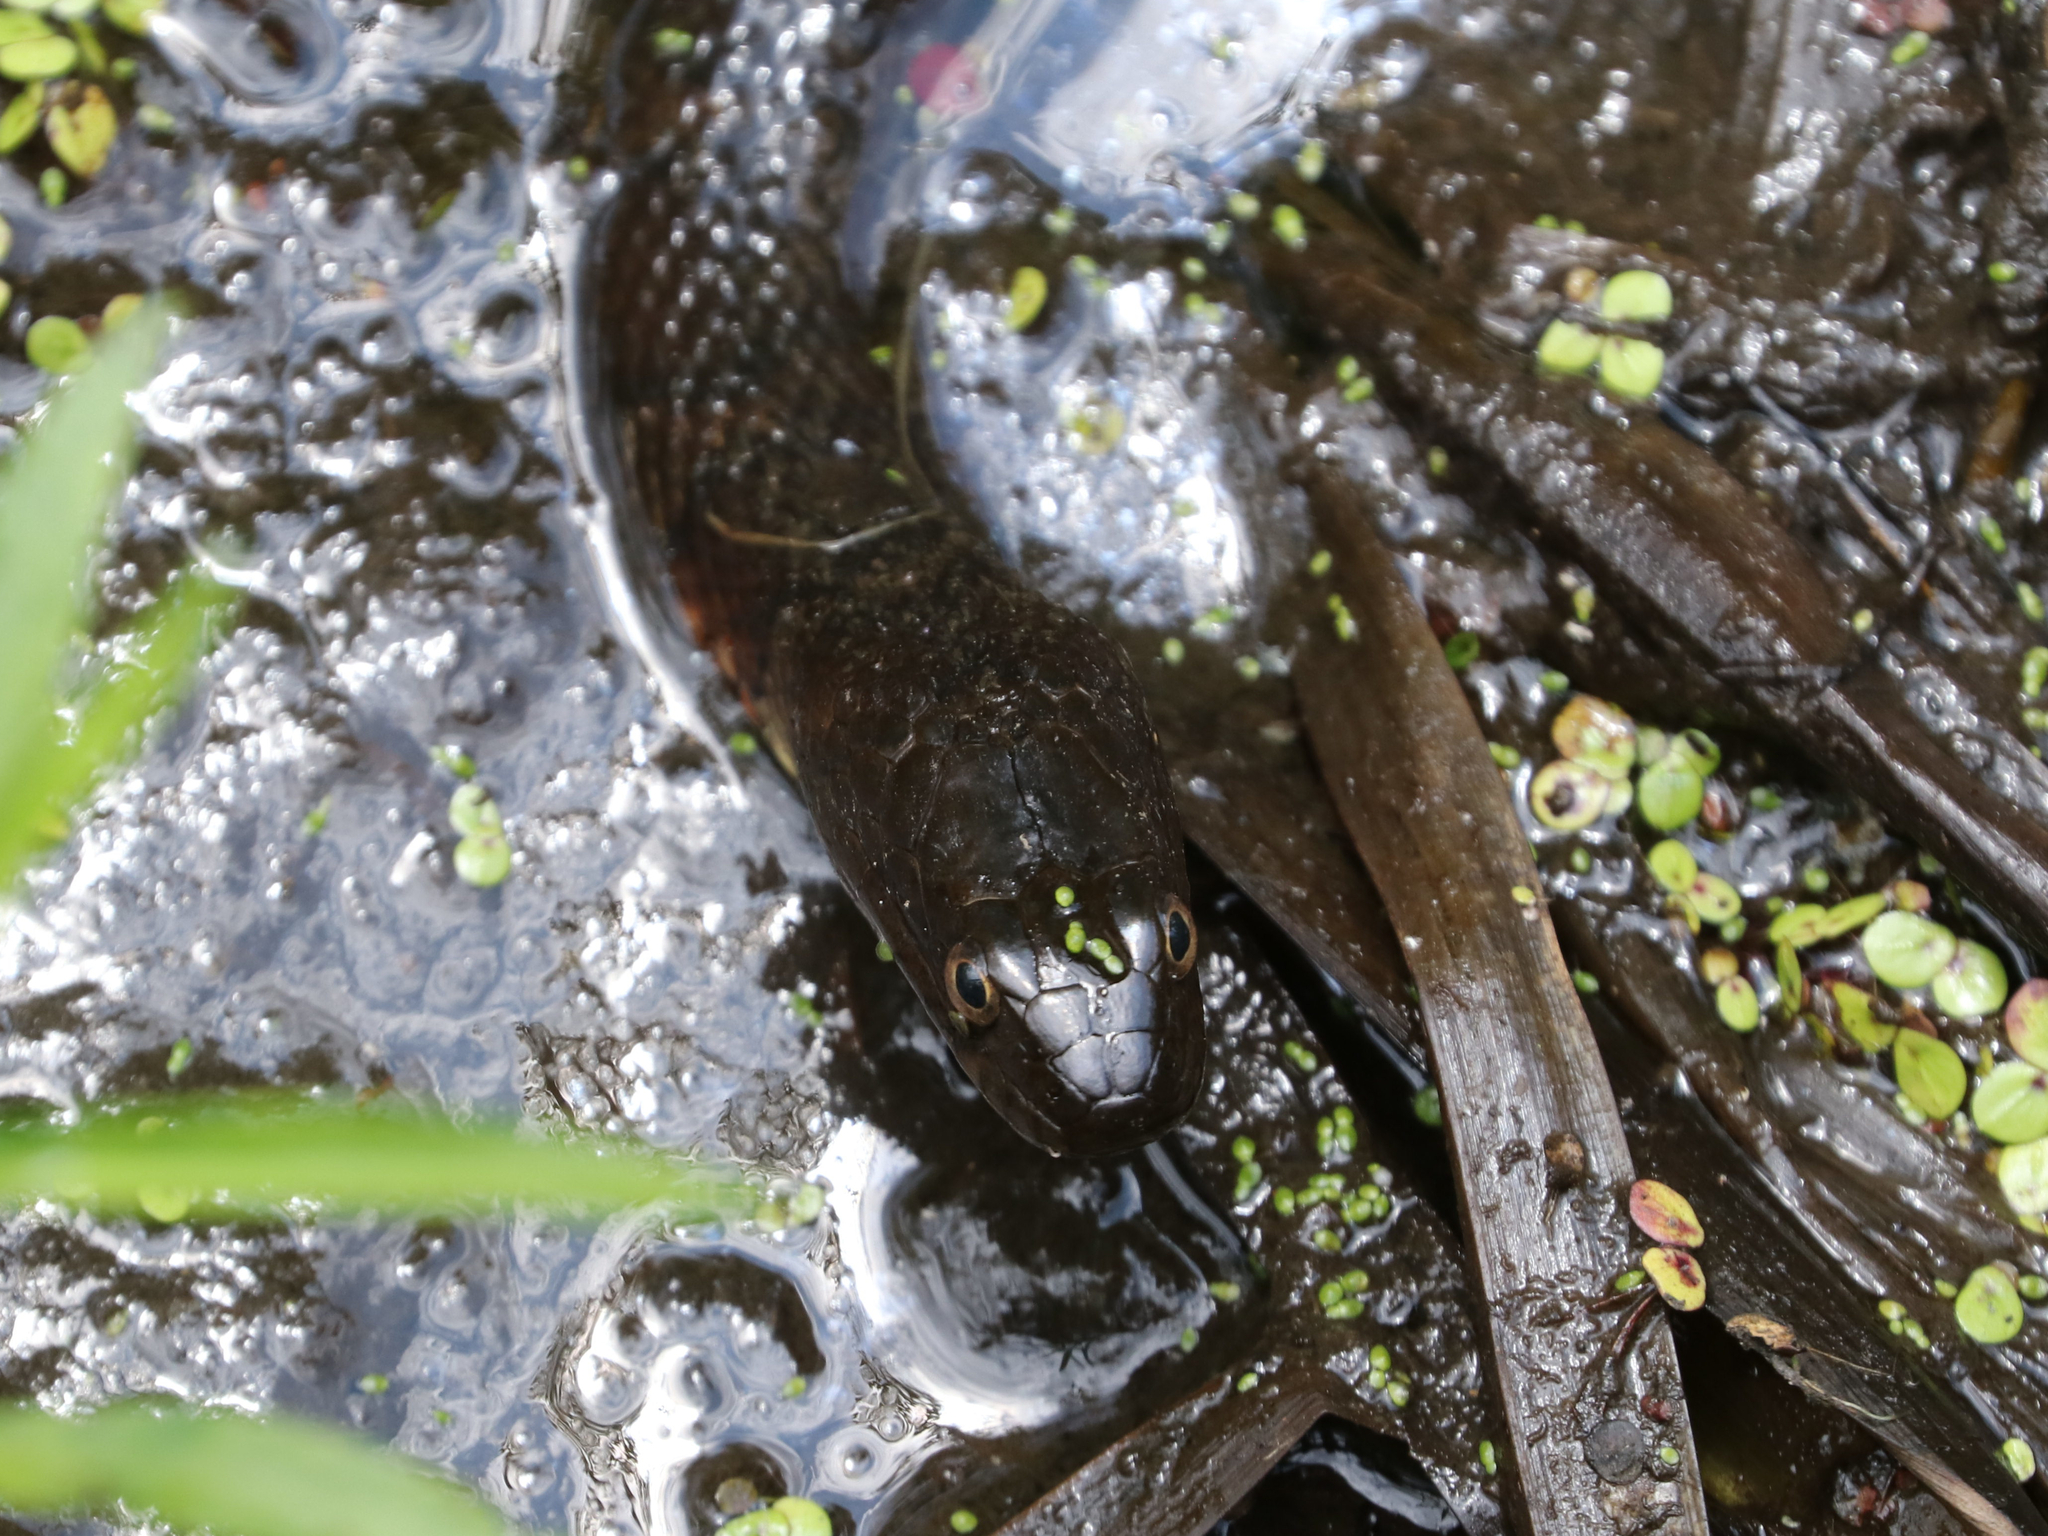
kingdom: Animalia
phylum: Chordata
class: Squamata
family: Colubridae
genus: Nerodia
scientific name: Nerodia sipedon
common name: Northern water snake
